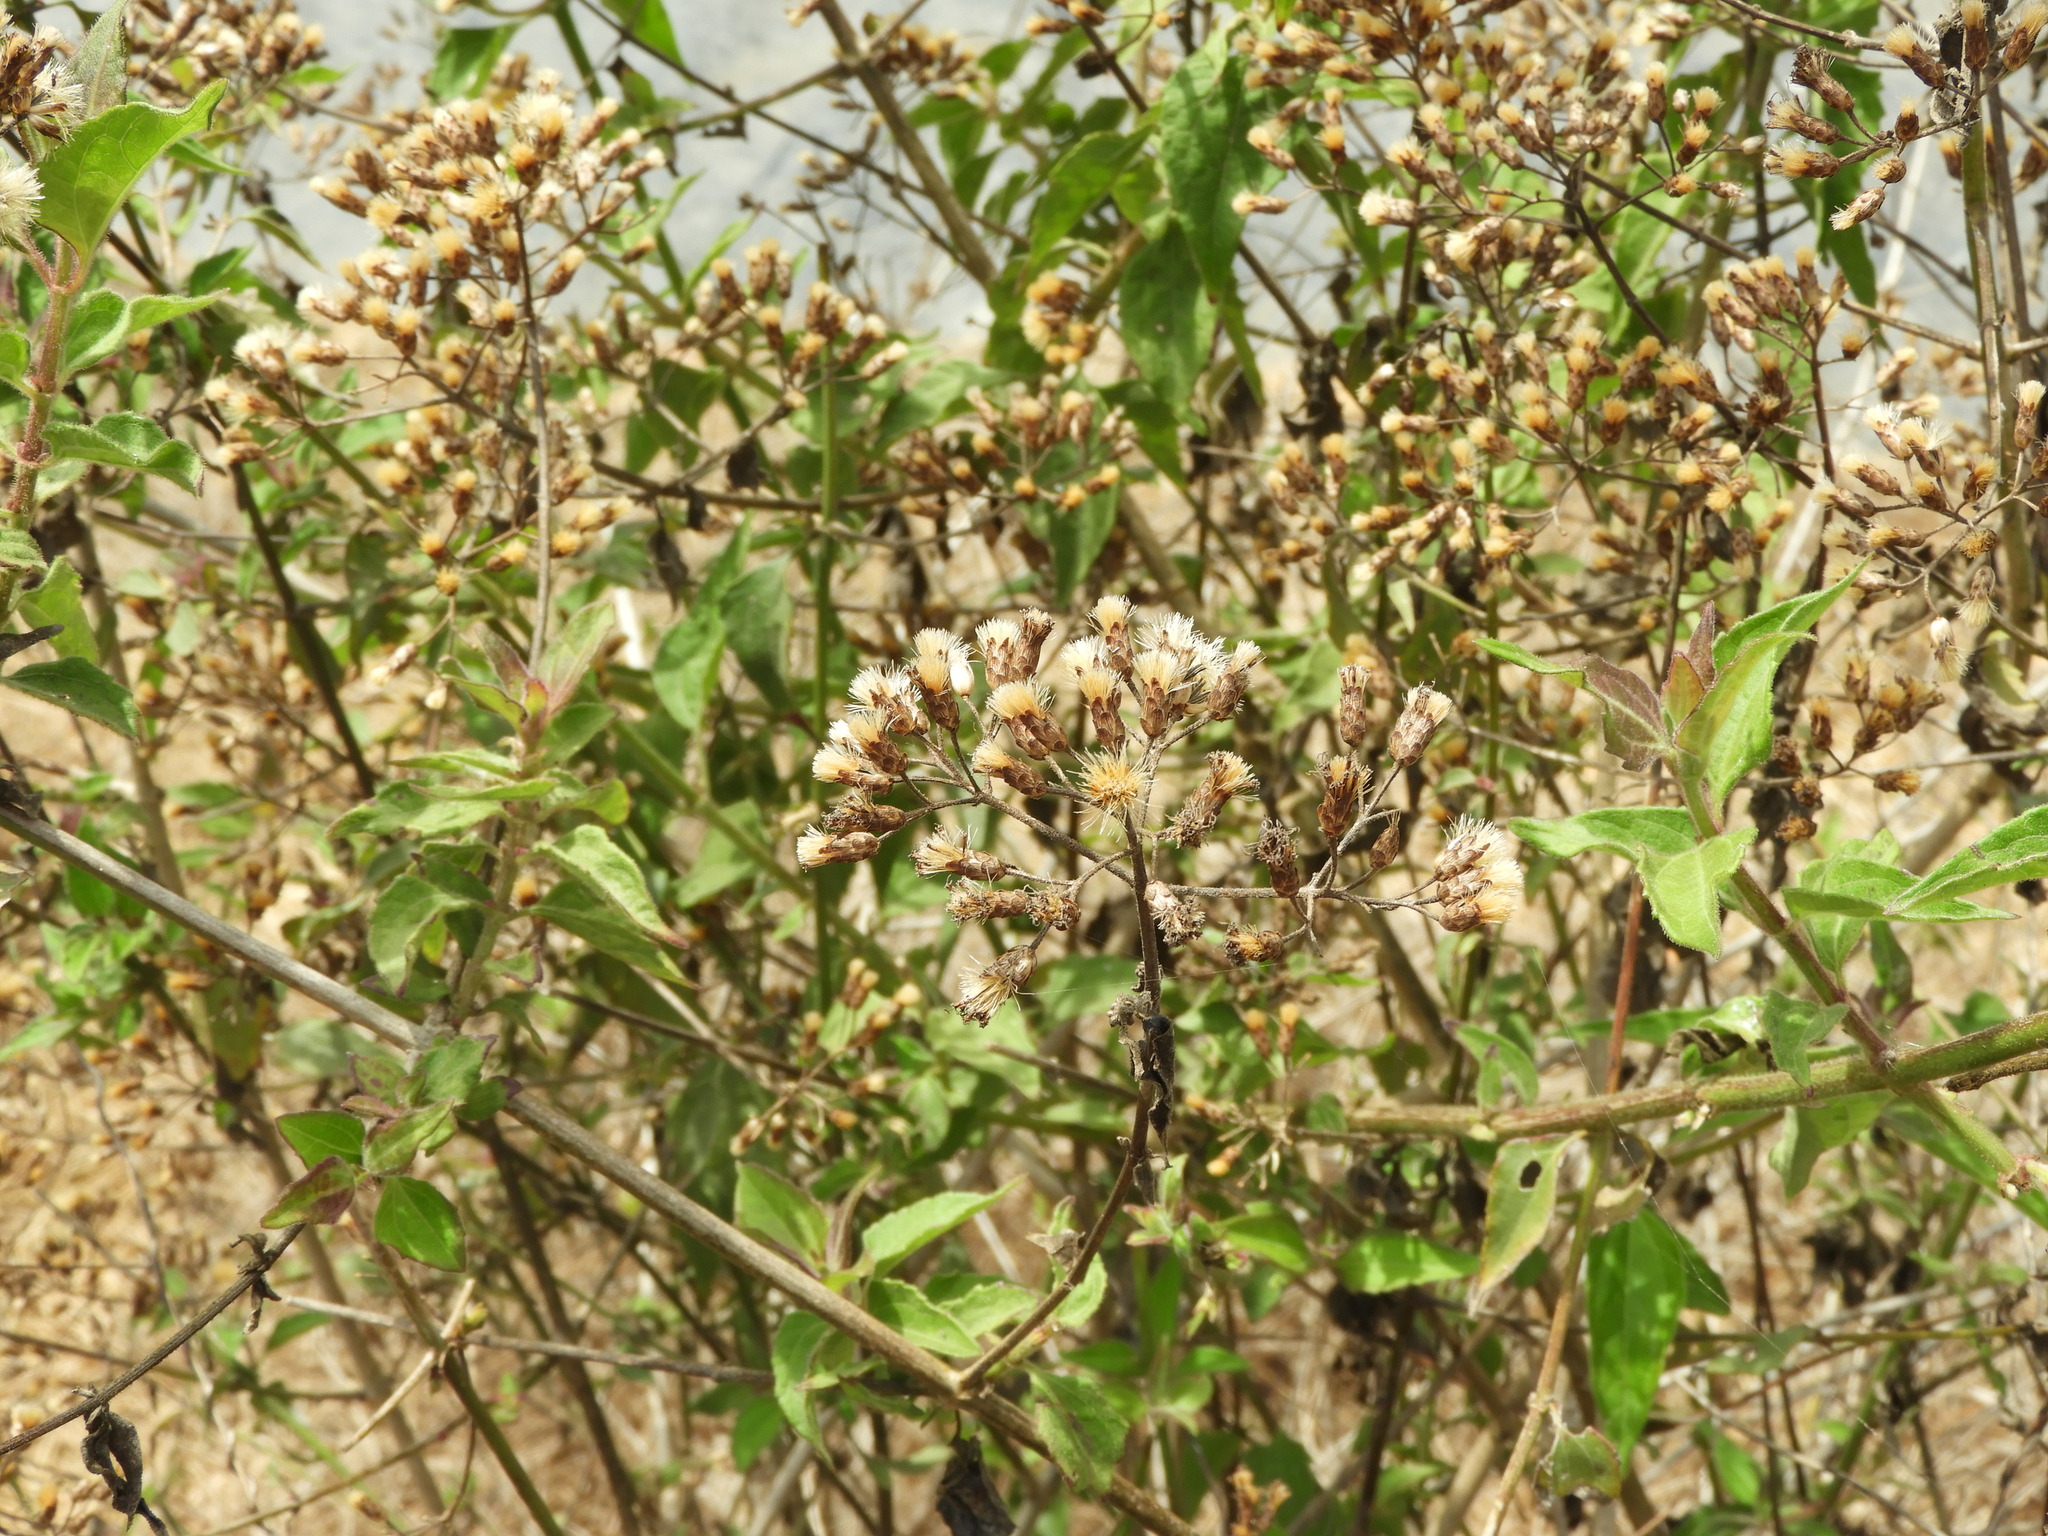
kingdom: Plantae
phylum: Tracheophyta
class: Magnoliopsida
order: Asterales
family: Asteraceae
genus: Chromolaena
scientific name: Chromolaena odorata
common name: Siamweed
